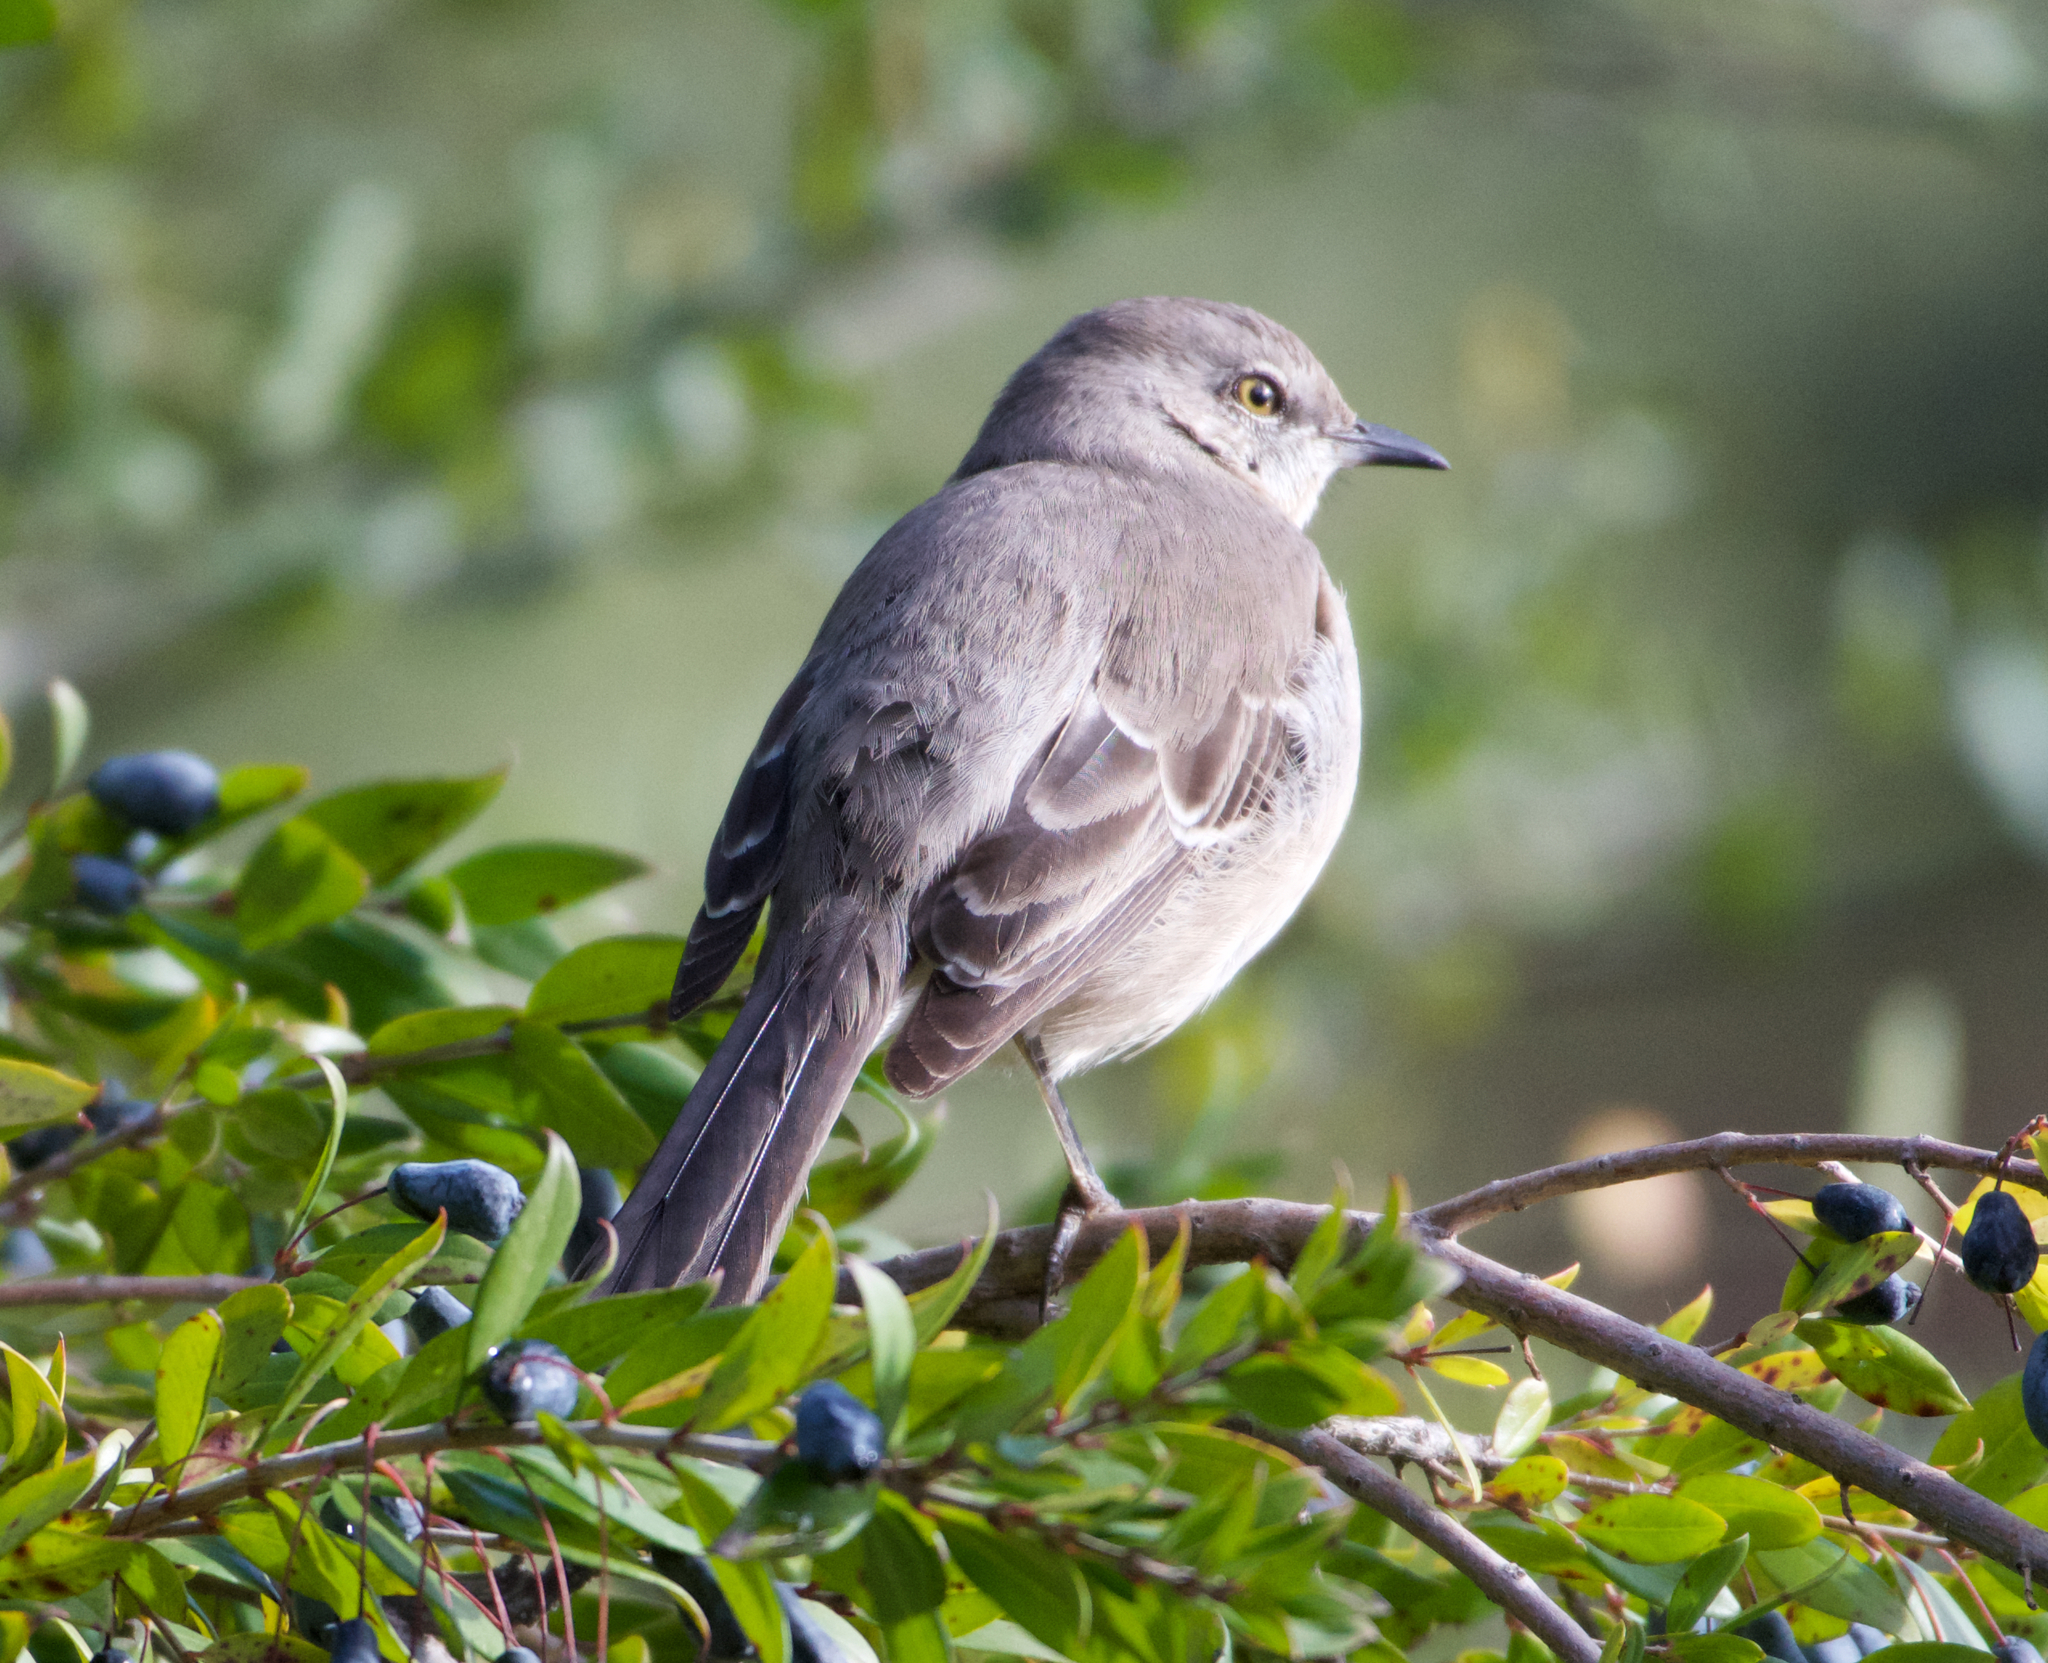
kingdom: Animalia
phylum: Chordata
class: Aves
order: Passeriformes
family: Mimidae
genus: Mimus
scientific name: Mimus polyglottos
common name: Northern mockingbird
